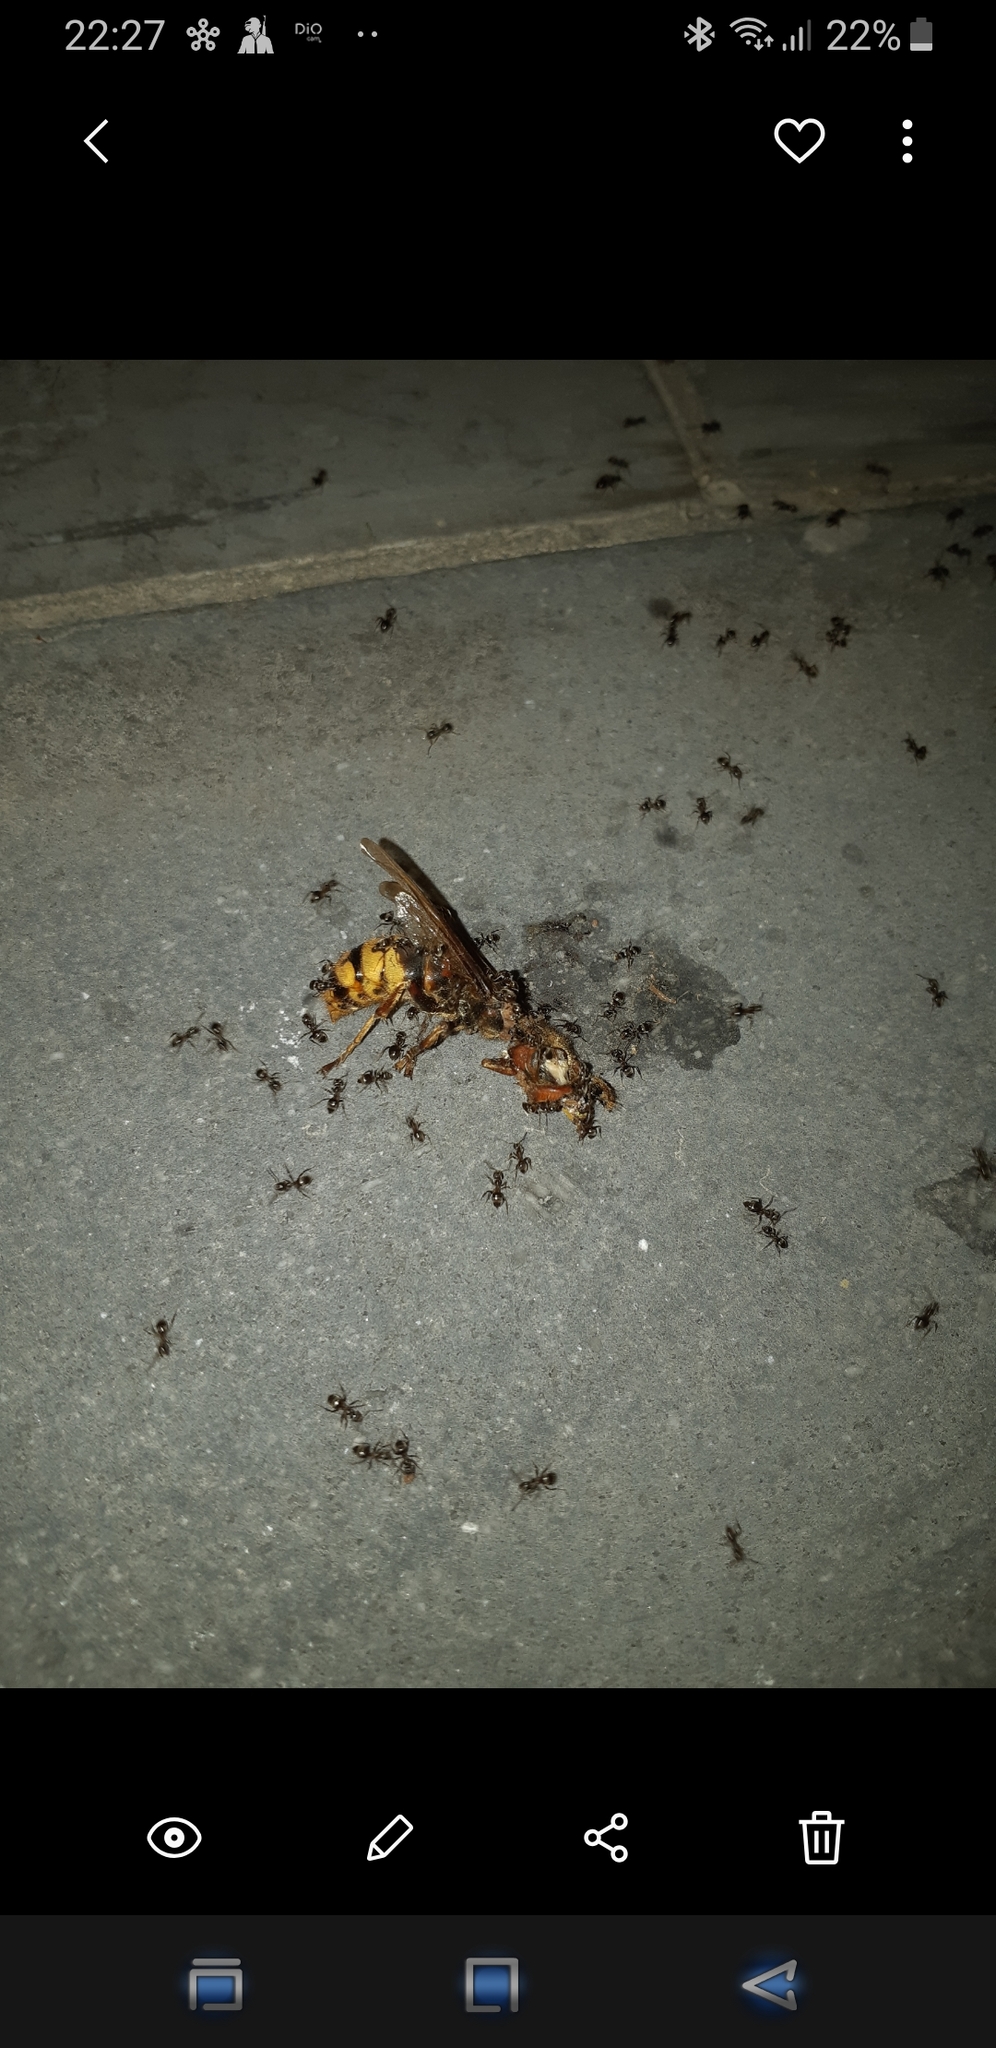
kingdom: Animalia
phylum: Arthropoda
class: Insecta
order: Hymenoptera
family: Vespidae
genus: Vespa
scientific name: Vespa crabro
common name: Hornet
